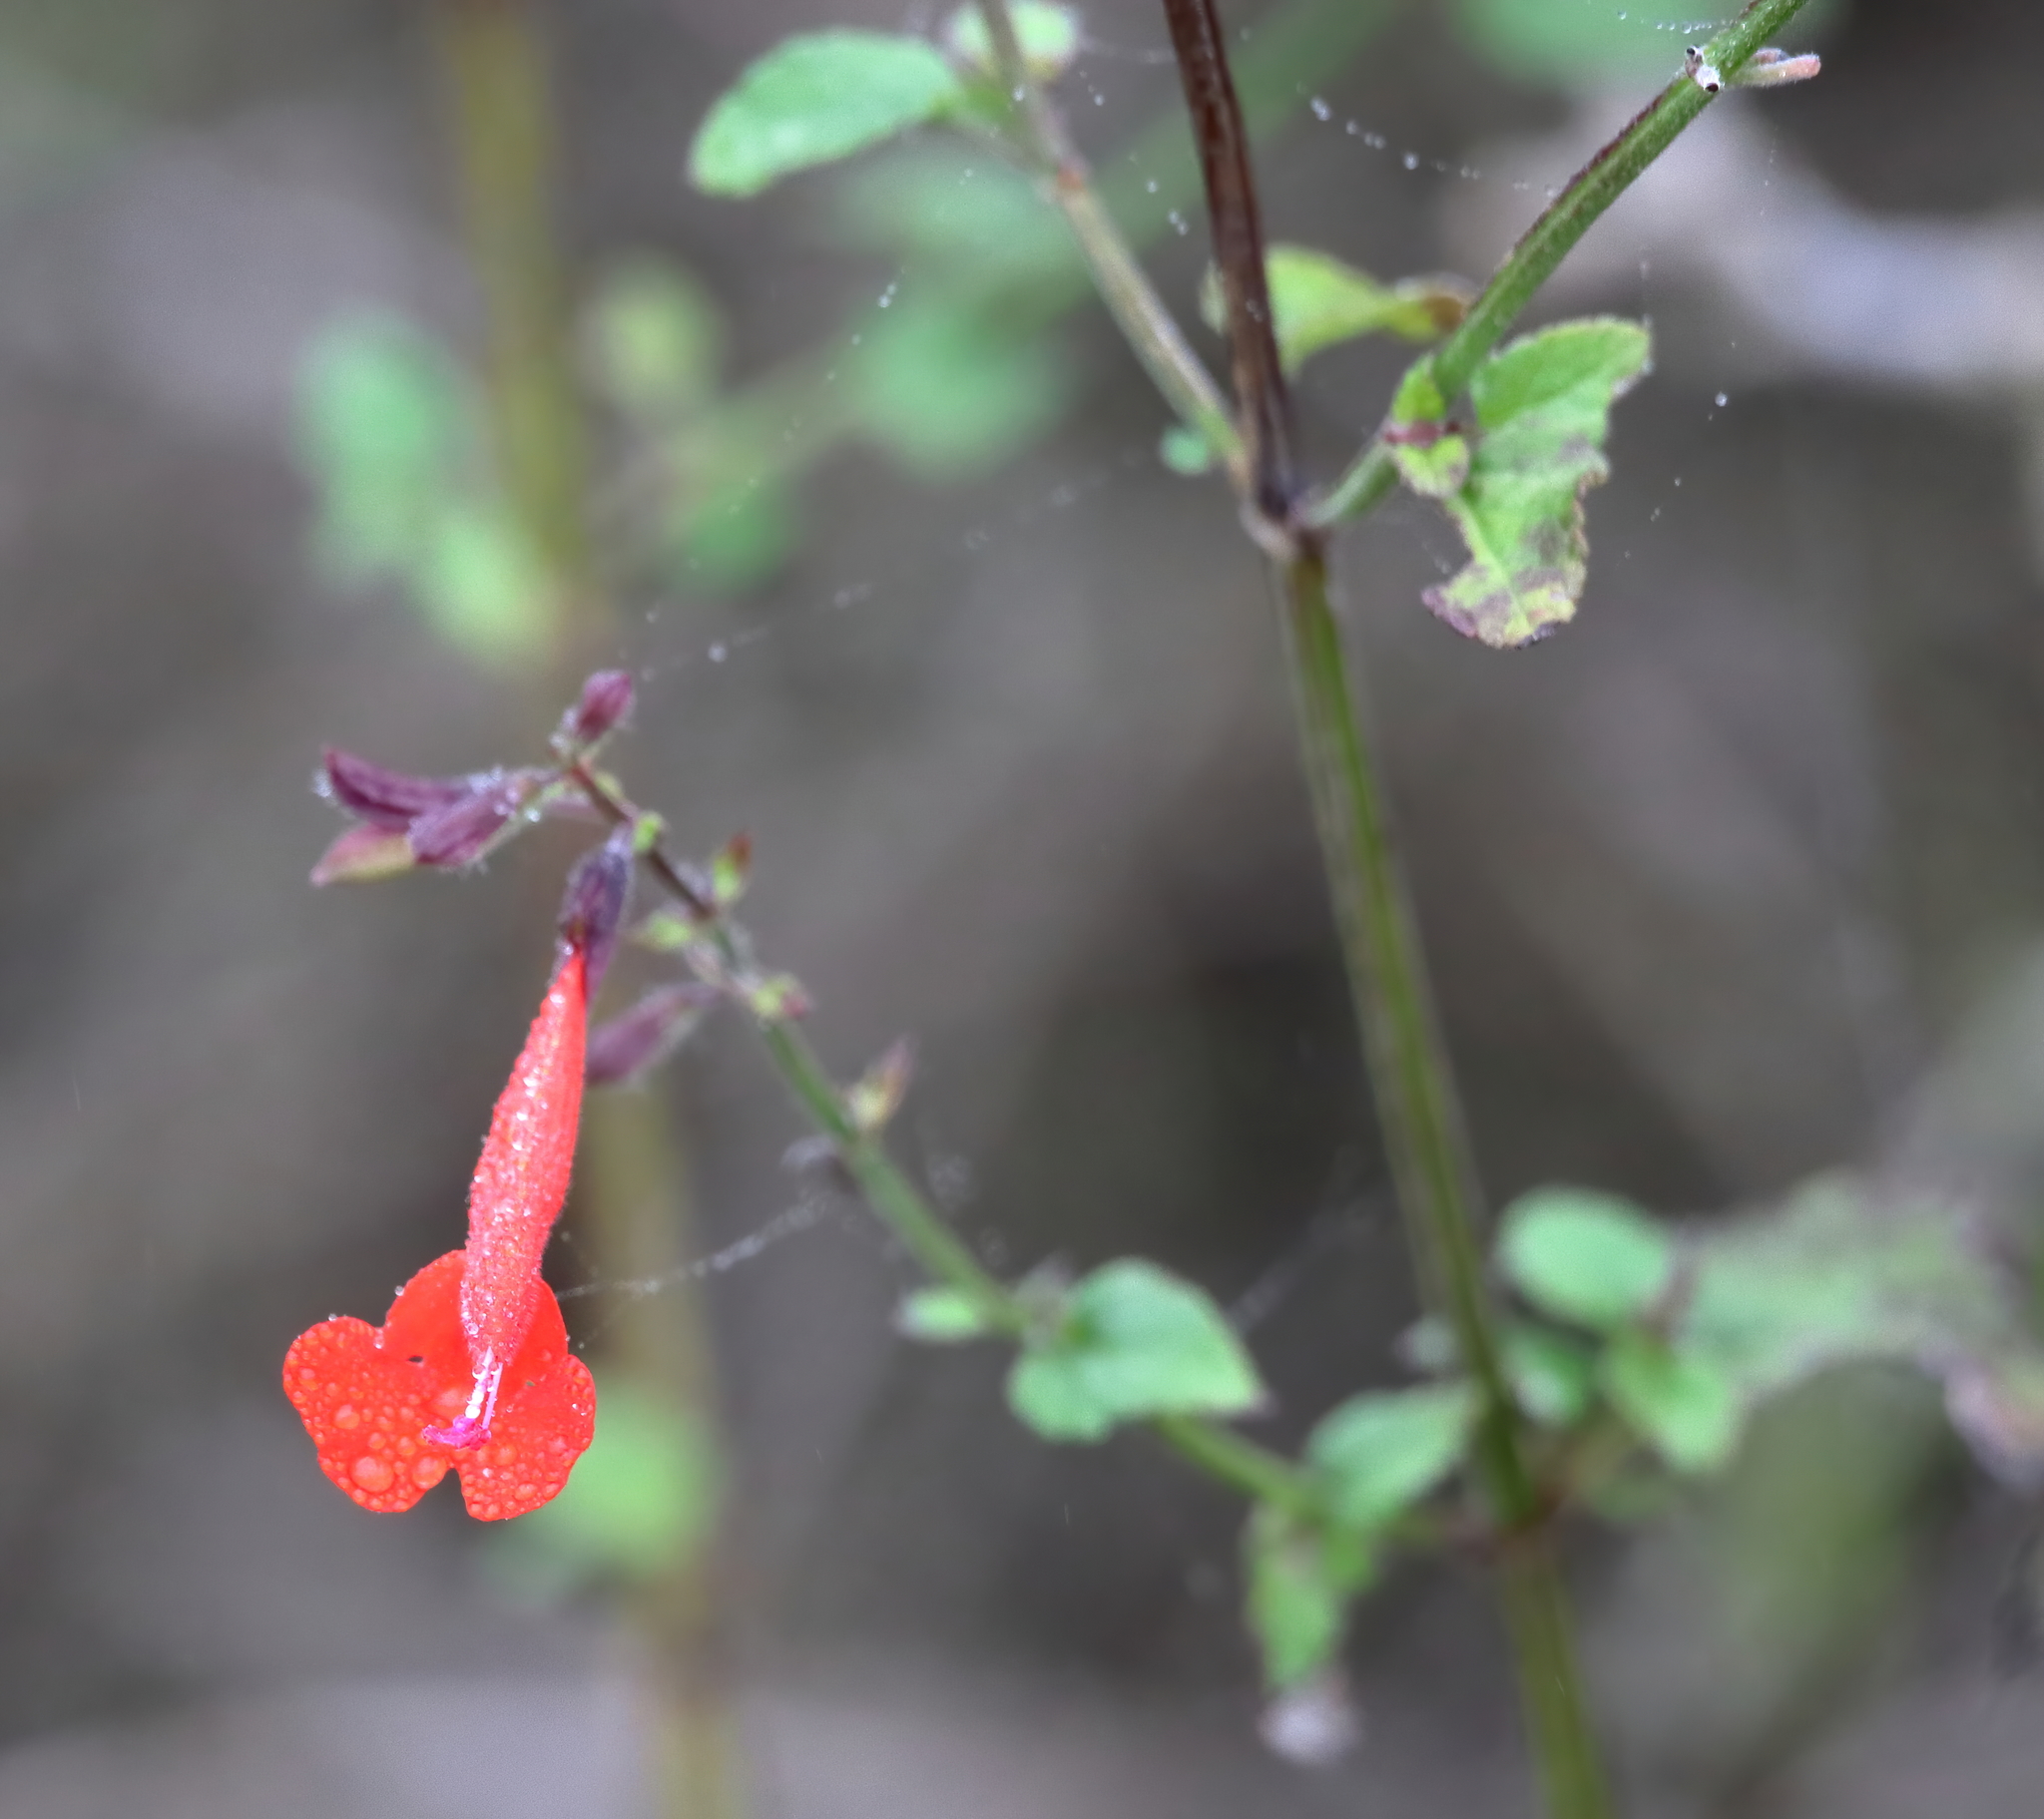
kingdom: Plantae
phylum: Tracheophyta
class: Magnoliopsida
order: Lamiales
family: Lamiaceae
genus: Salvia
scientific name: Salvia coccinea
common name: Blood sage
